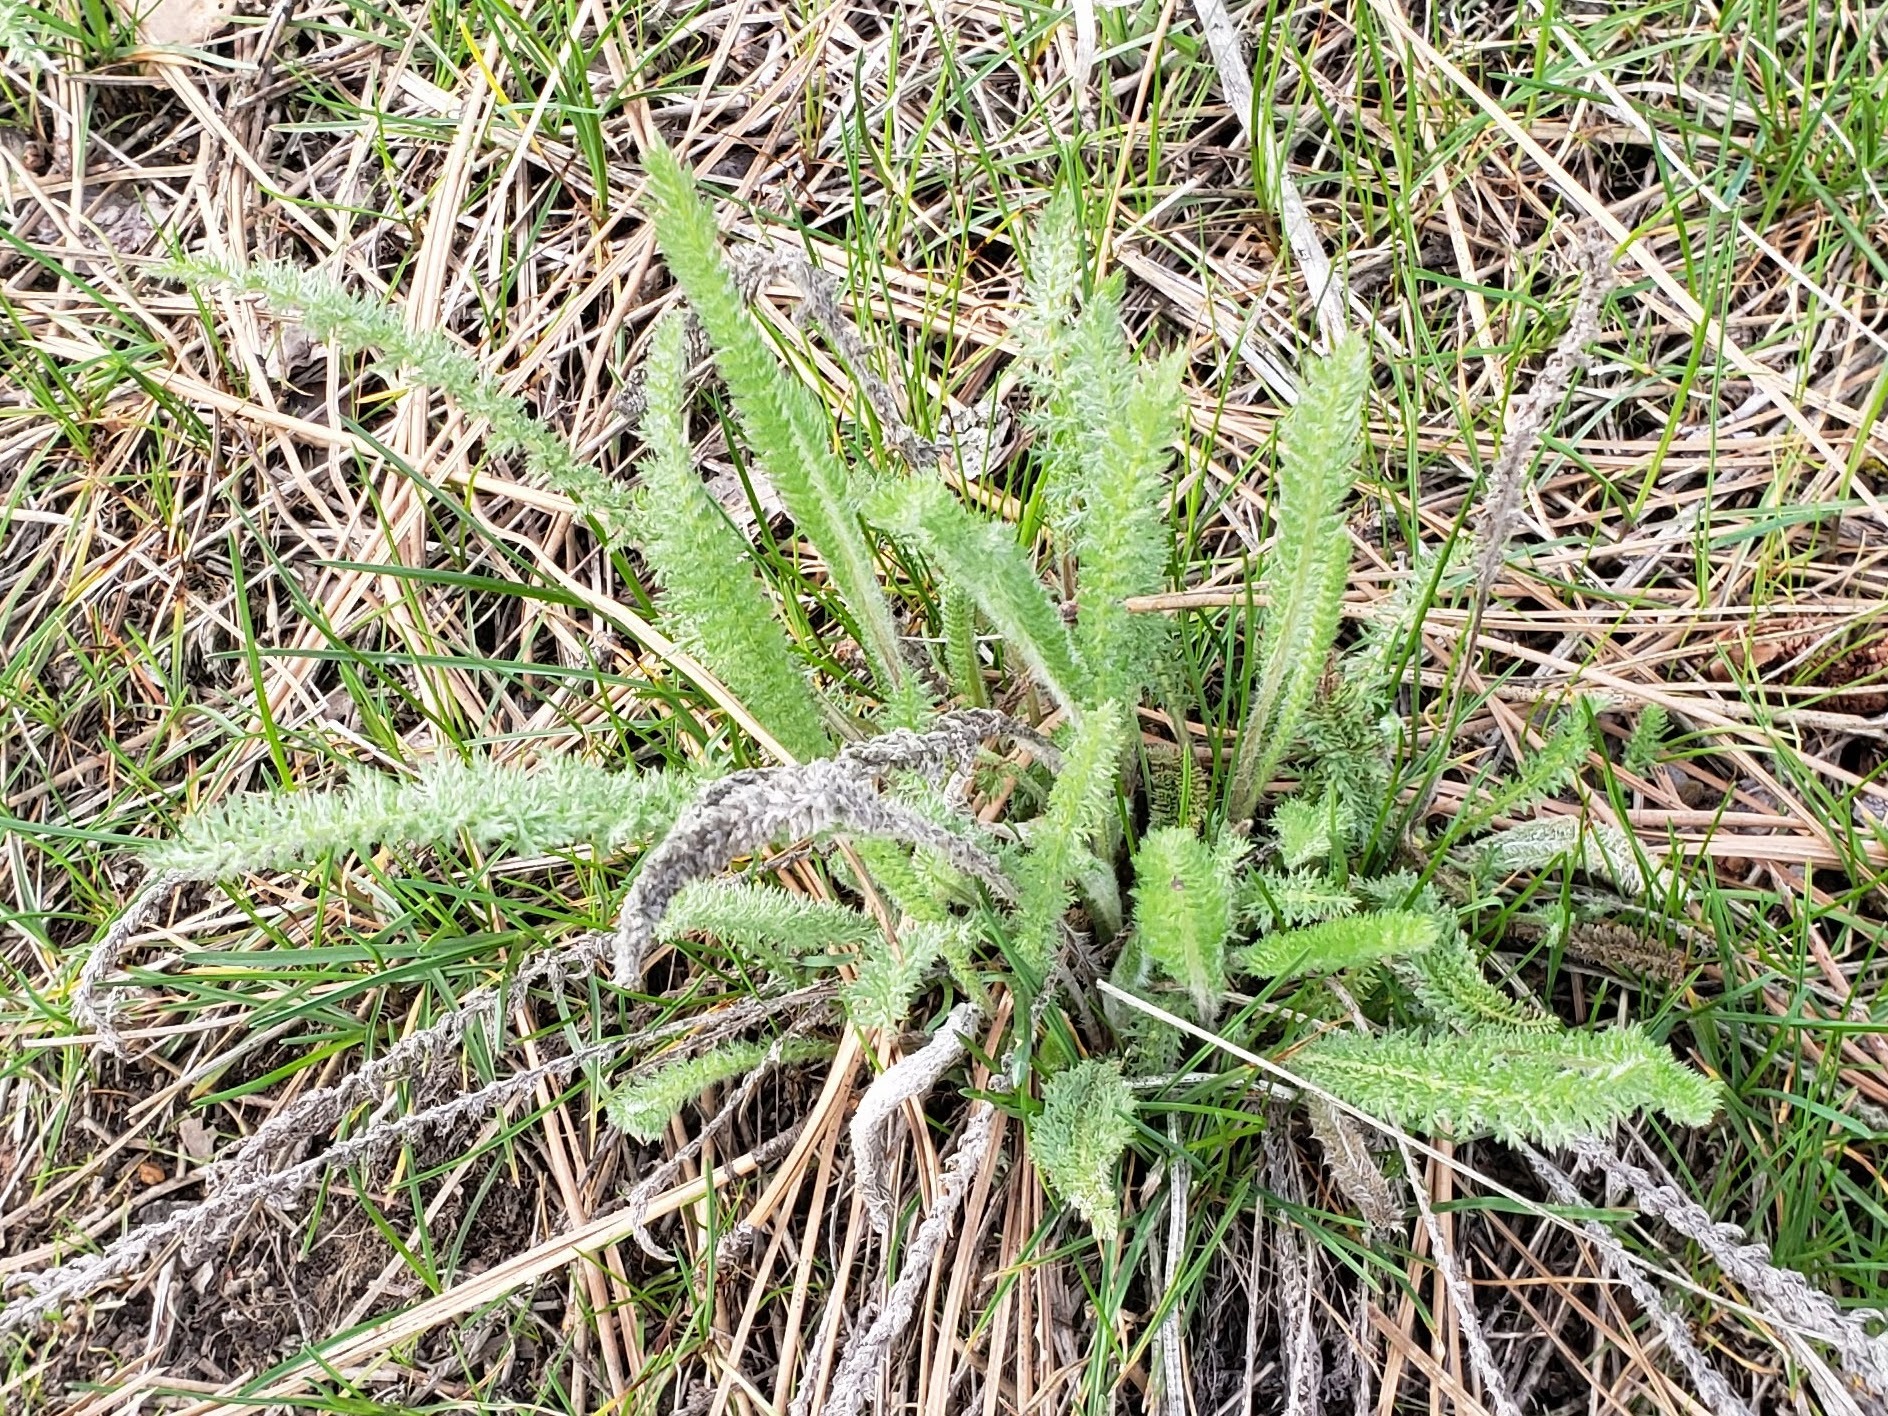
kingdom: Plantae
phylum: Tracheophyta
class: Magnoliopsida
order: Asterales
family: Asteraceae
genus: Achillea
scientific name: Achillea millefolium
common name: Yarrow
